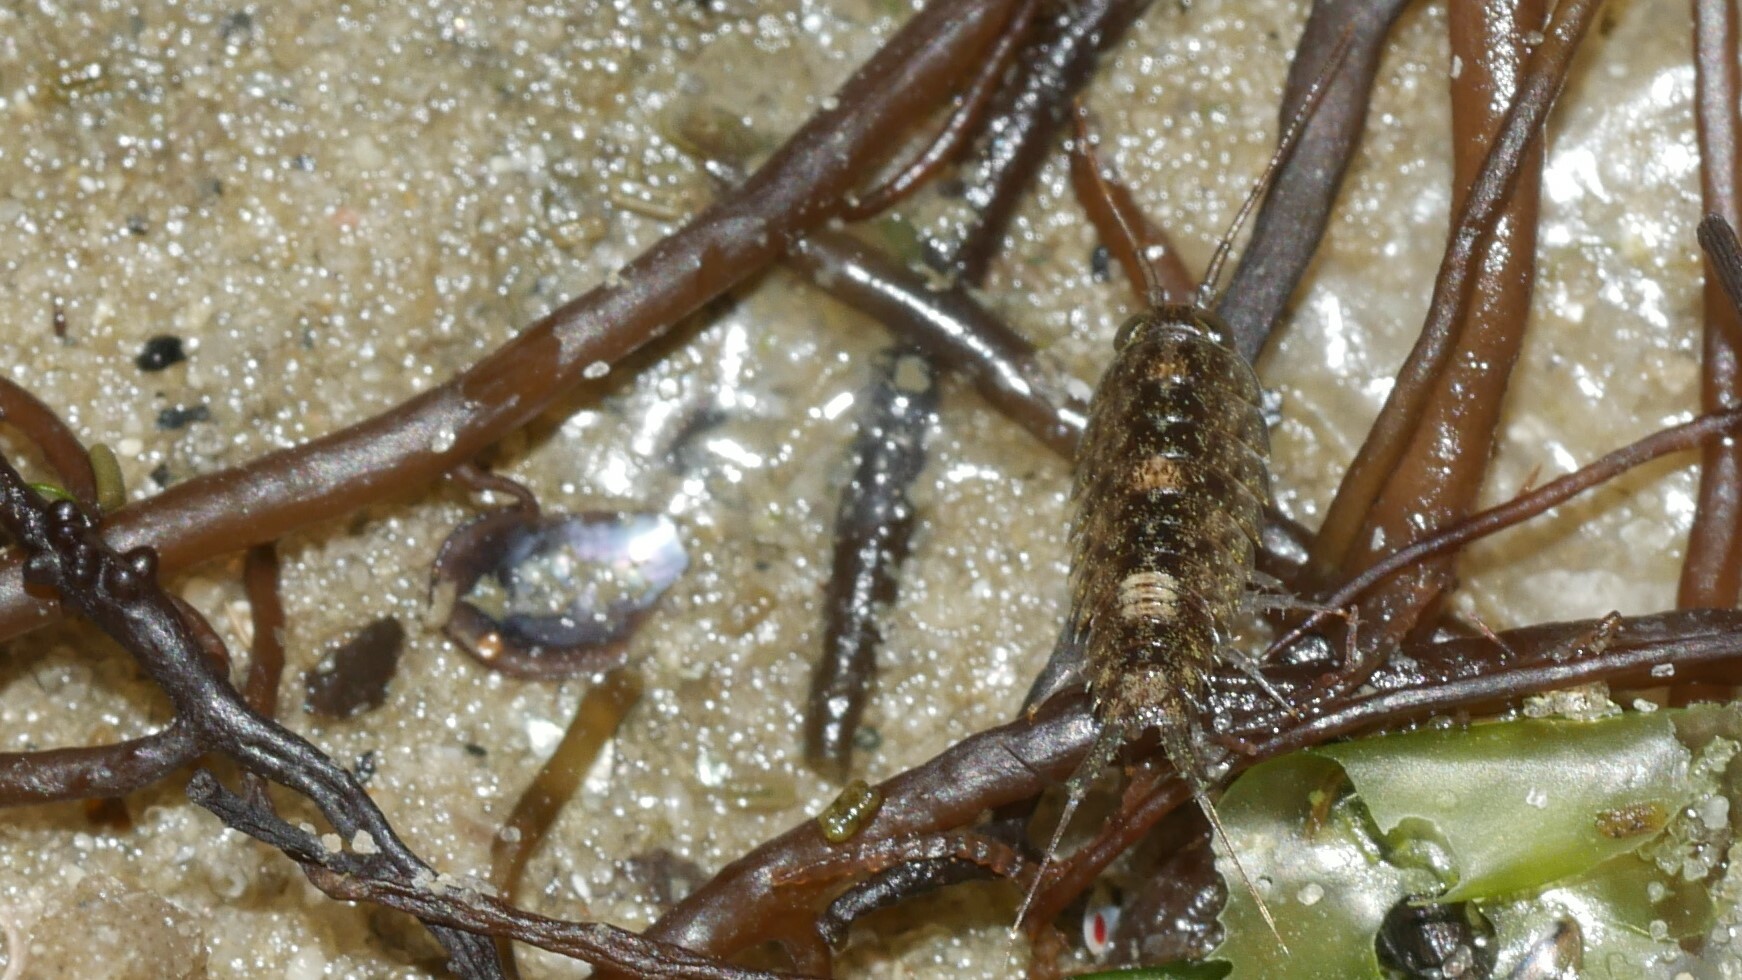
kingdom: Animalia
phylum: Arthropoda
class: Malacostraca
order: Isopoda
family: Ligiidae
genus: Ligia
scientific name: Ligia exotica
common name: Wharf roach
